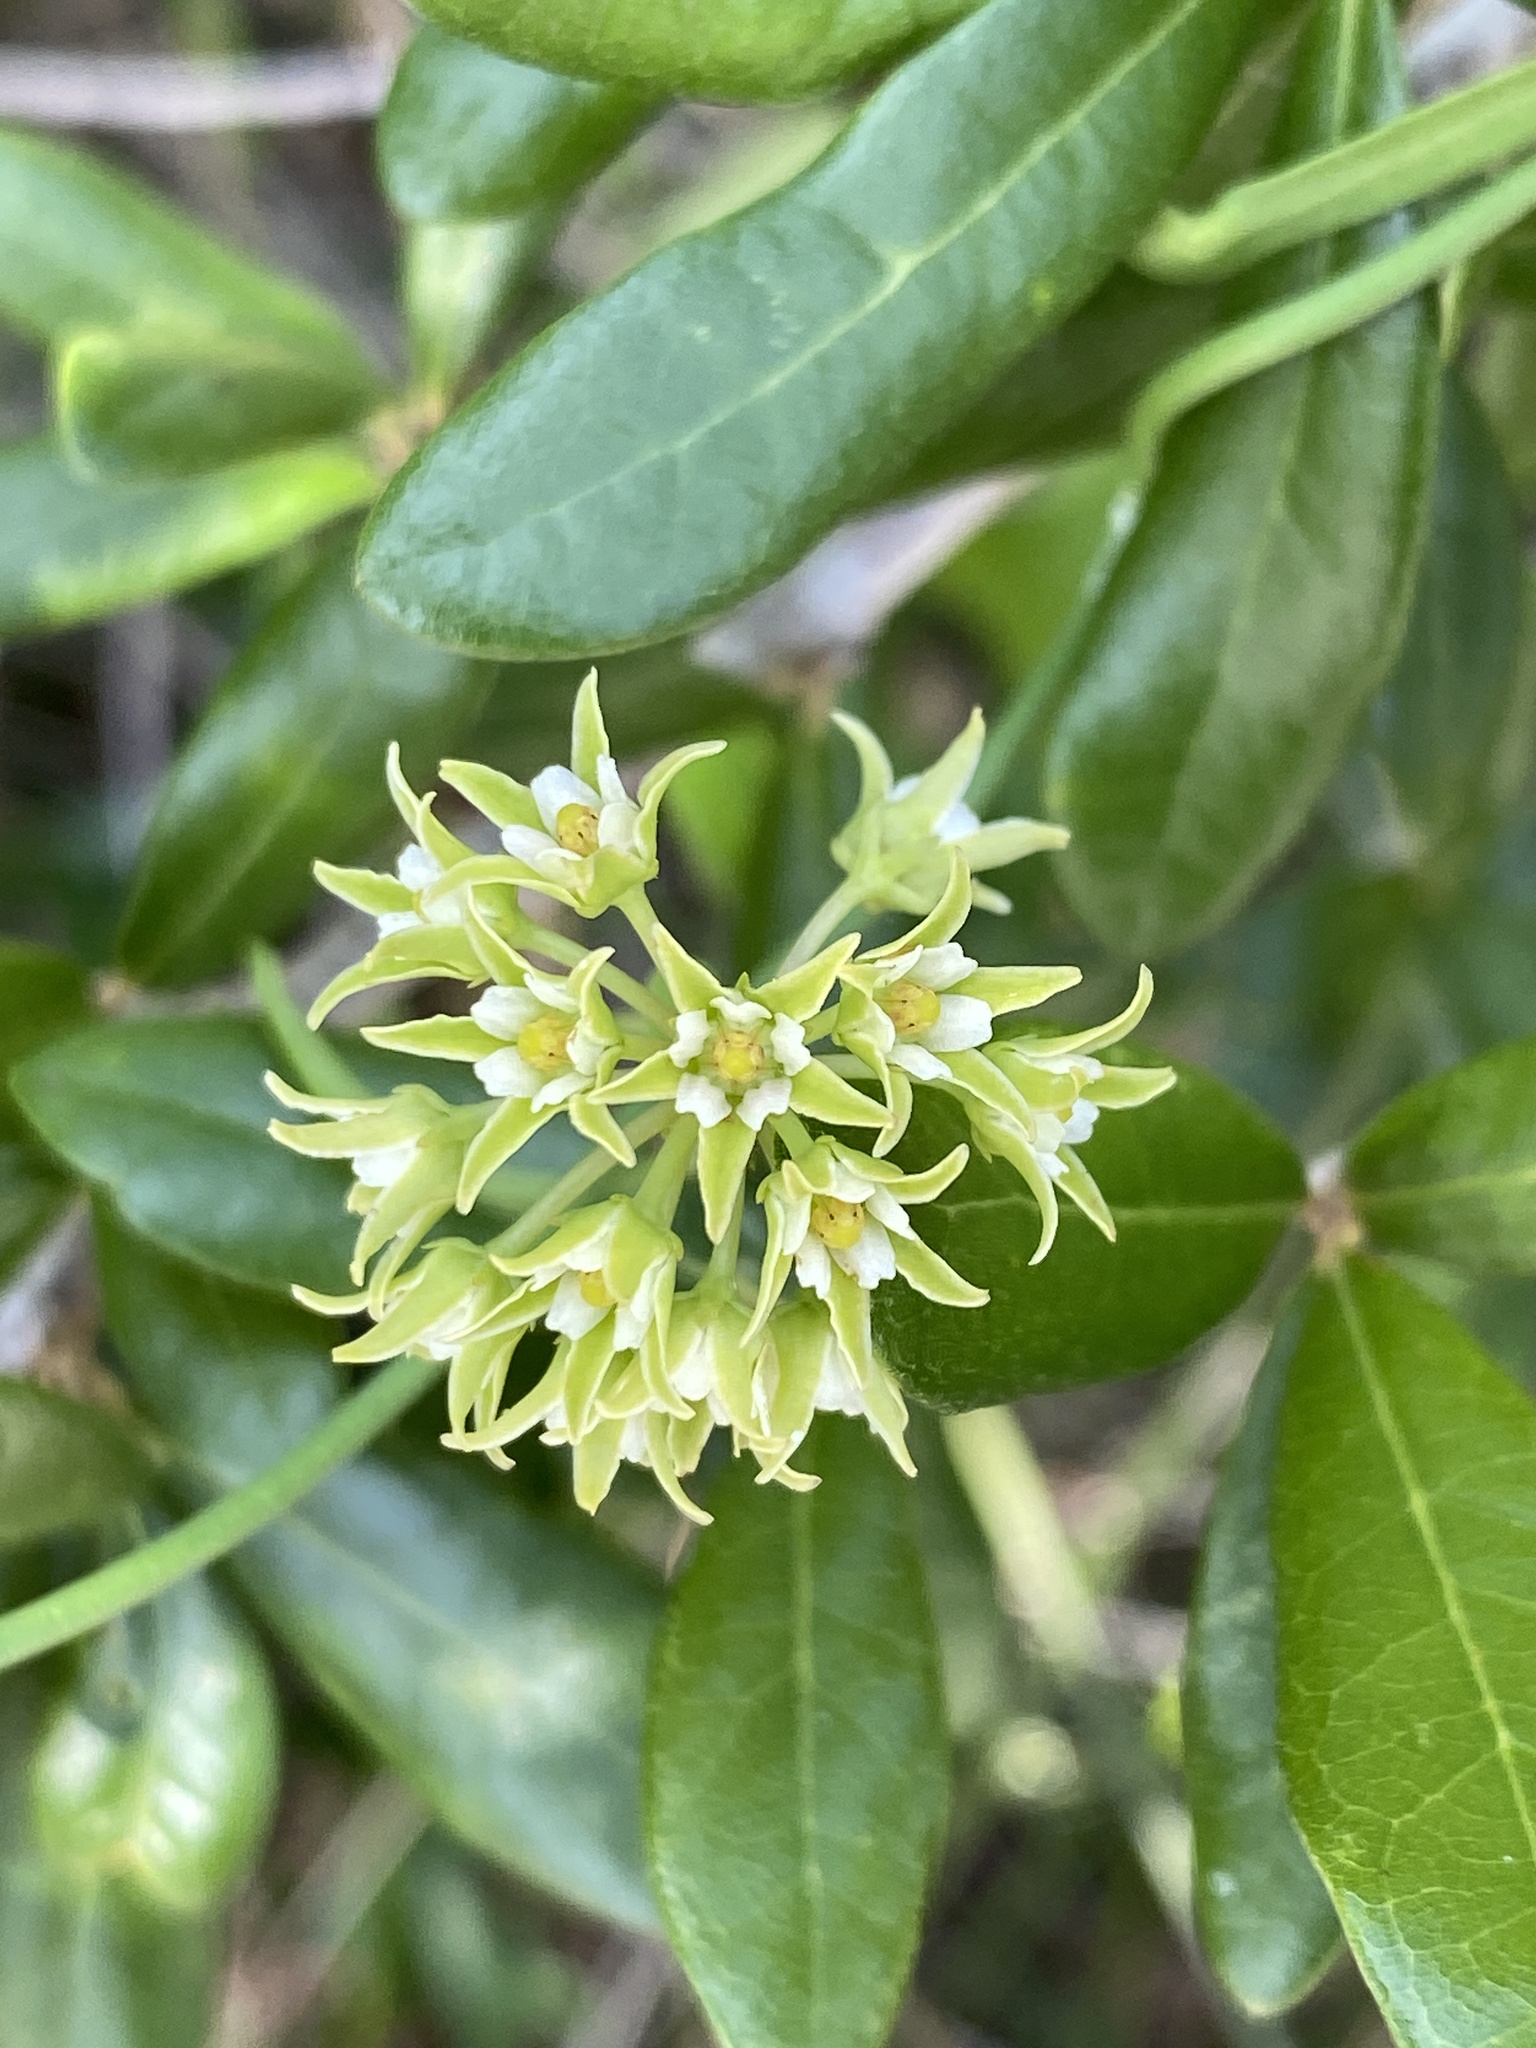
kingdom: Plantae
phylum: Tracheophyta
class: Magnoliopsida
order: Gentianales
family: Apocynaceae
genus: Pattalias
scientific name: Pattalias
